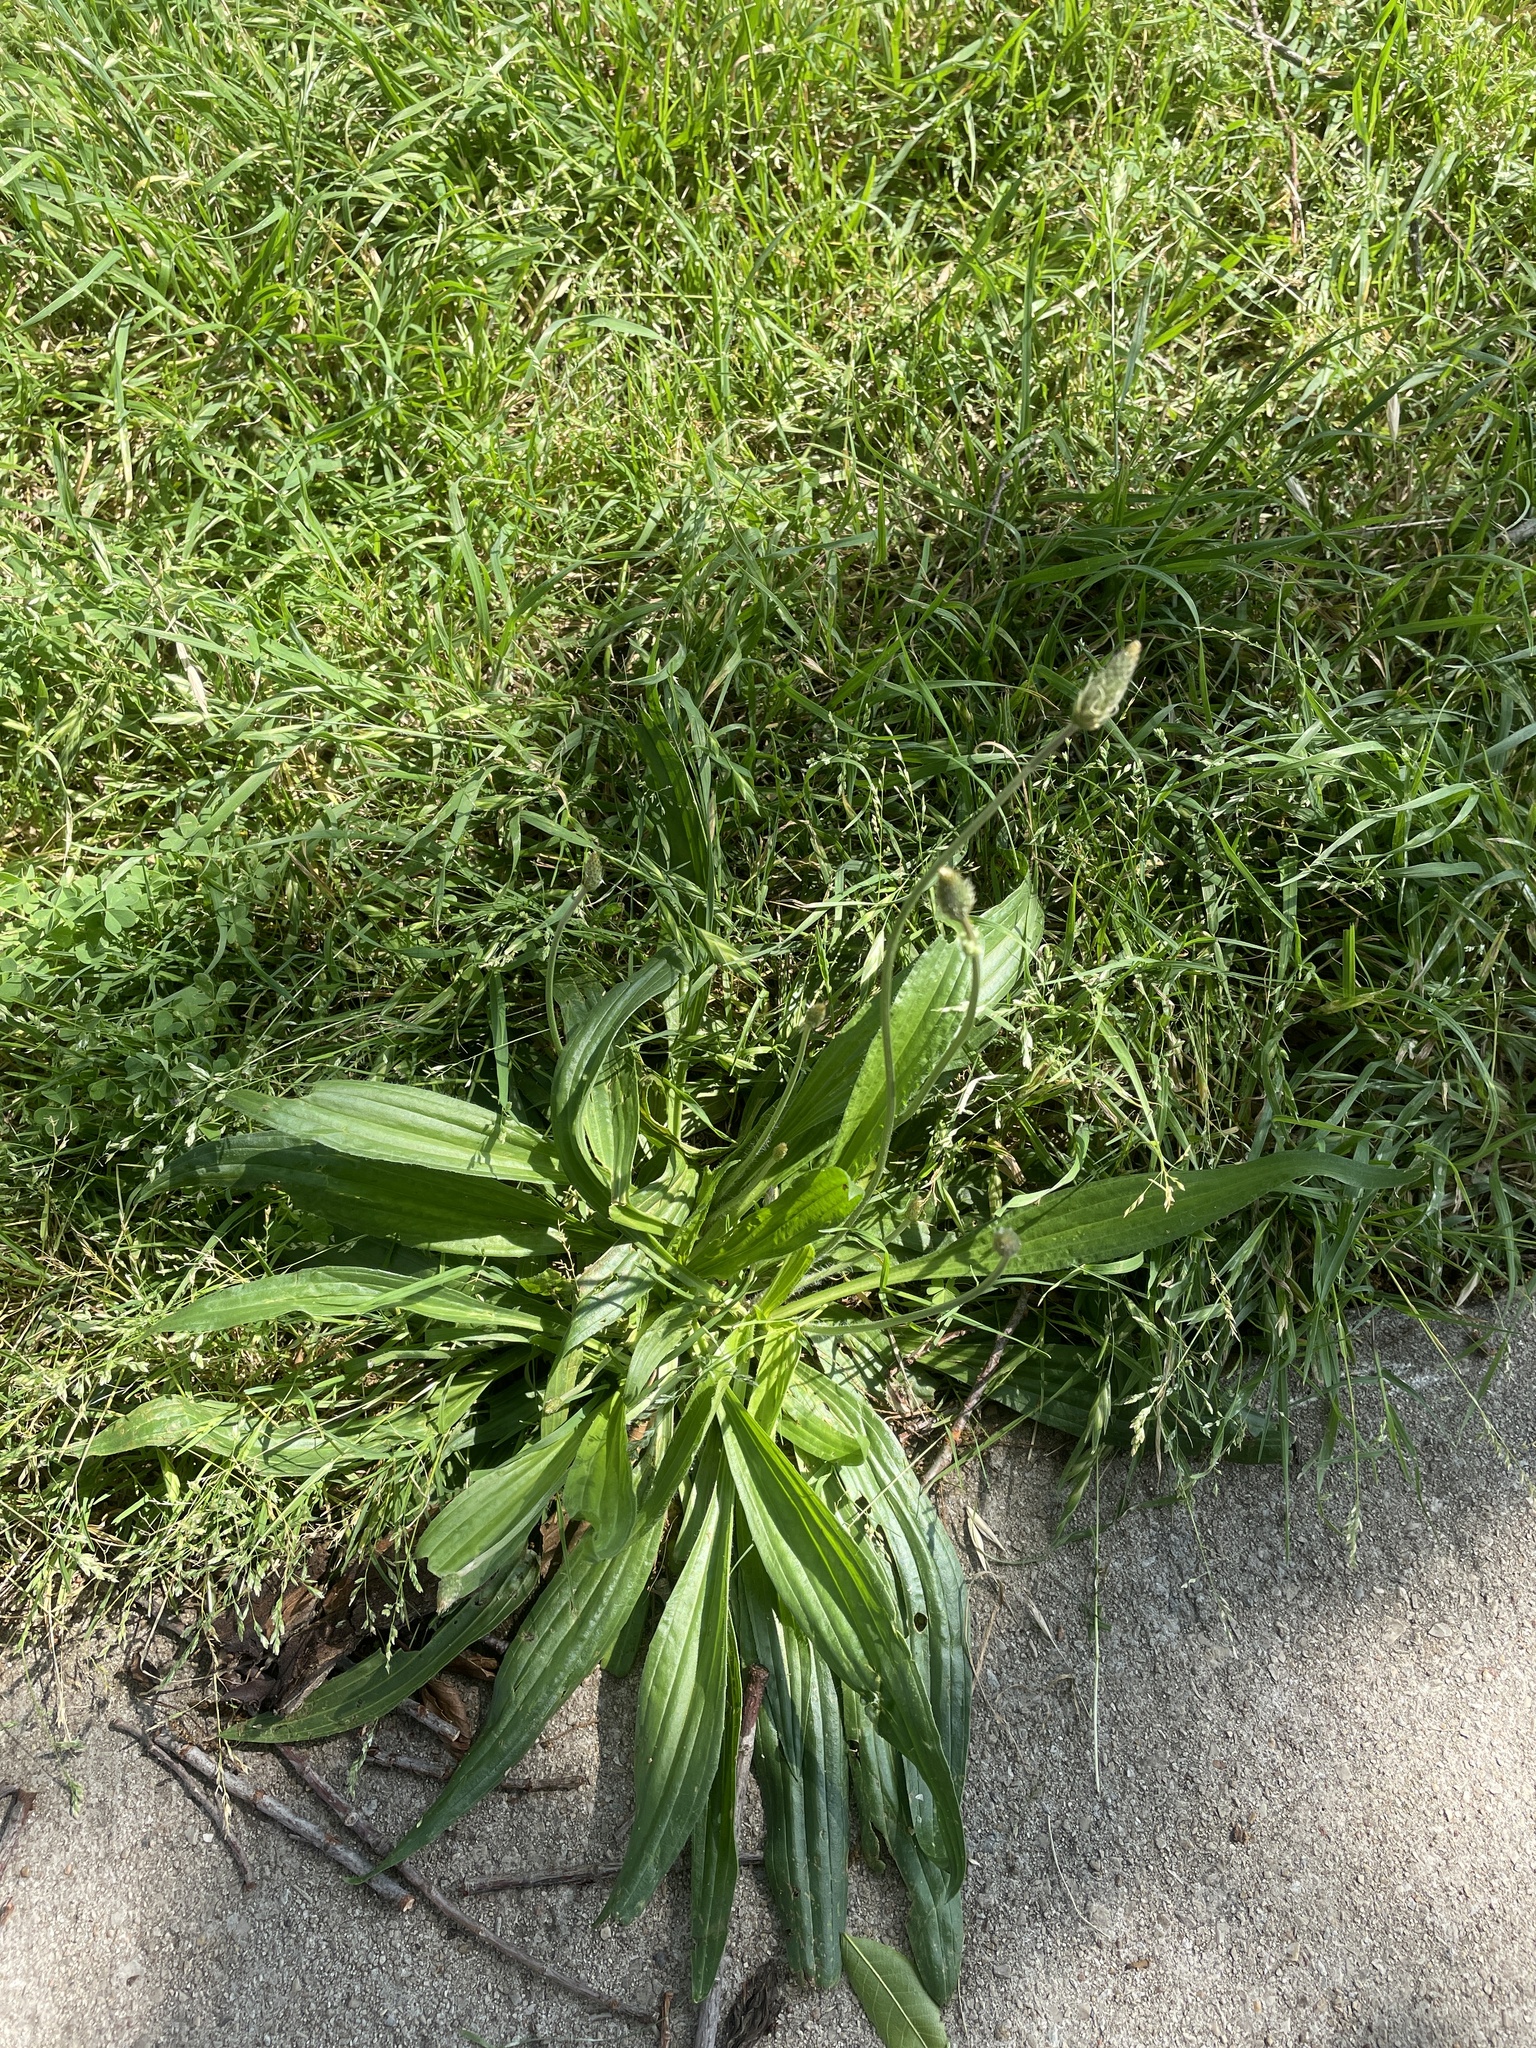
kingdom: Plantae
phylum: Tracheophyta
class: Magnoliopsida
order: Lamiales
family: Plantaginaceae
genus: Plantago
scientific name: Plantago lanceolata
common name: Ribwort plantain
